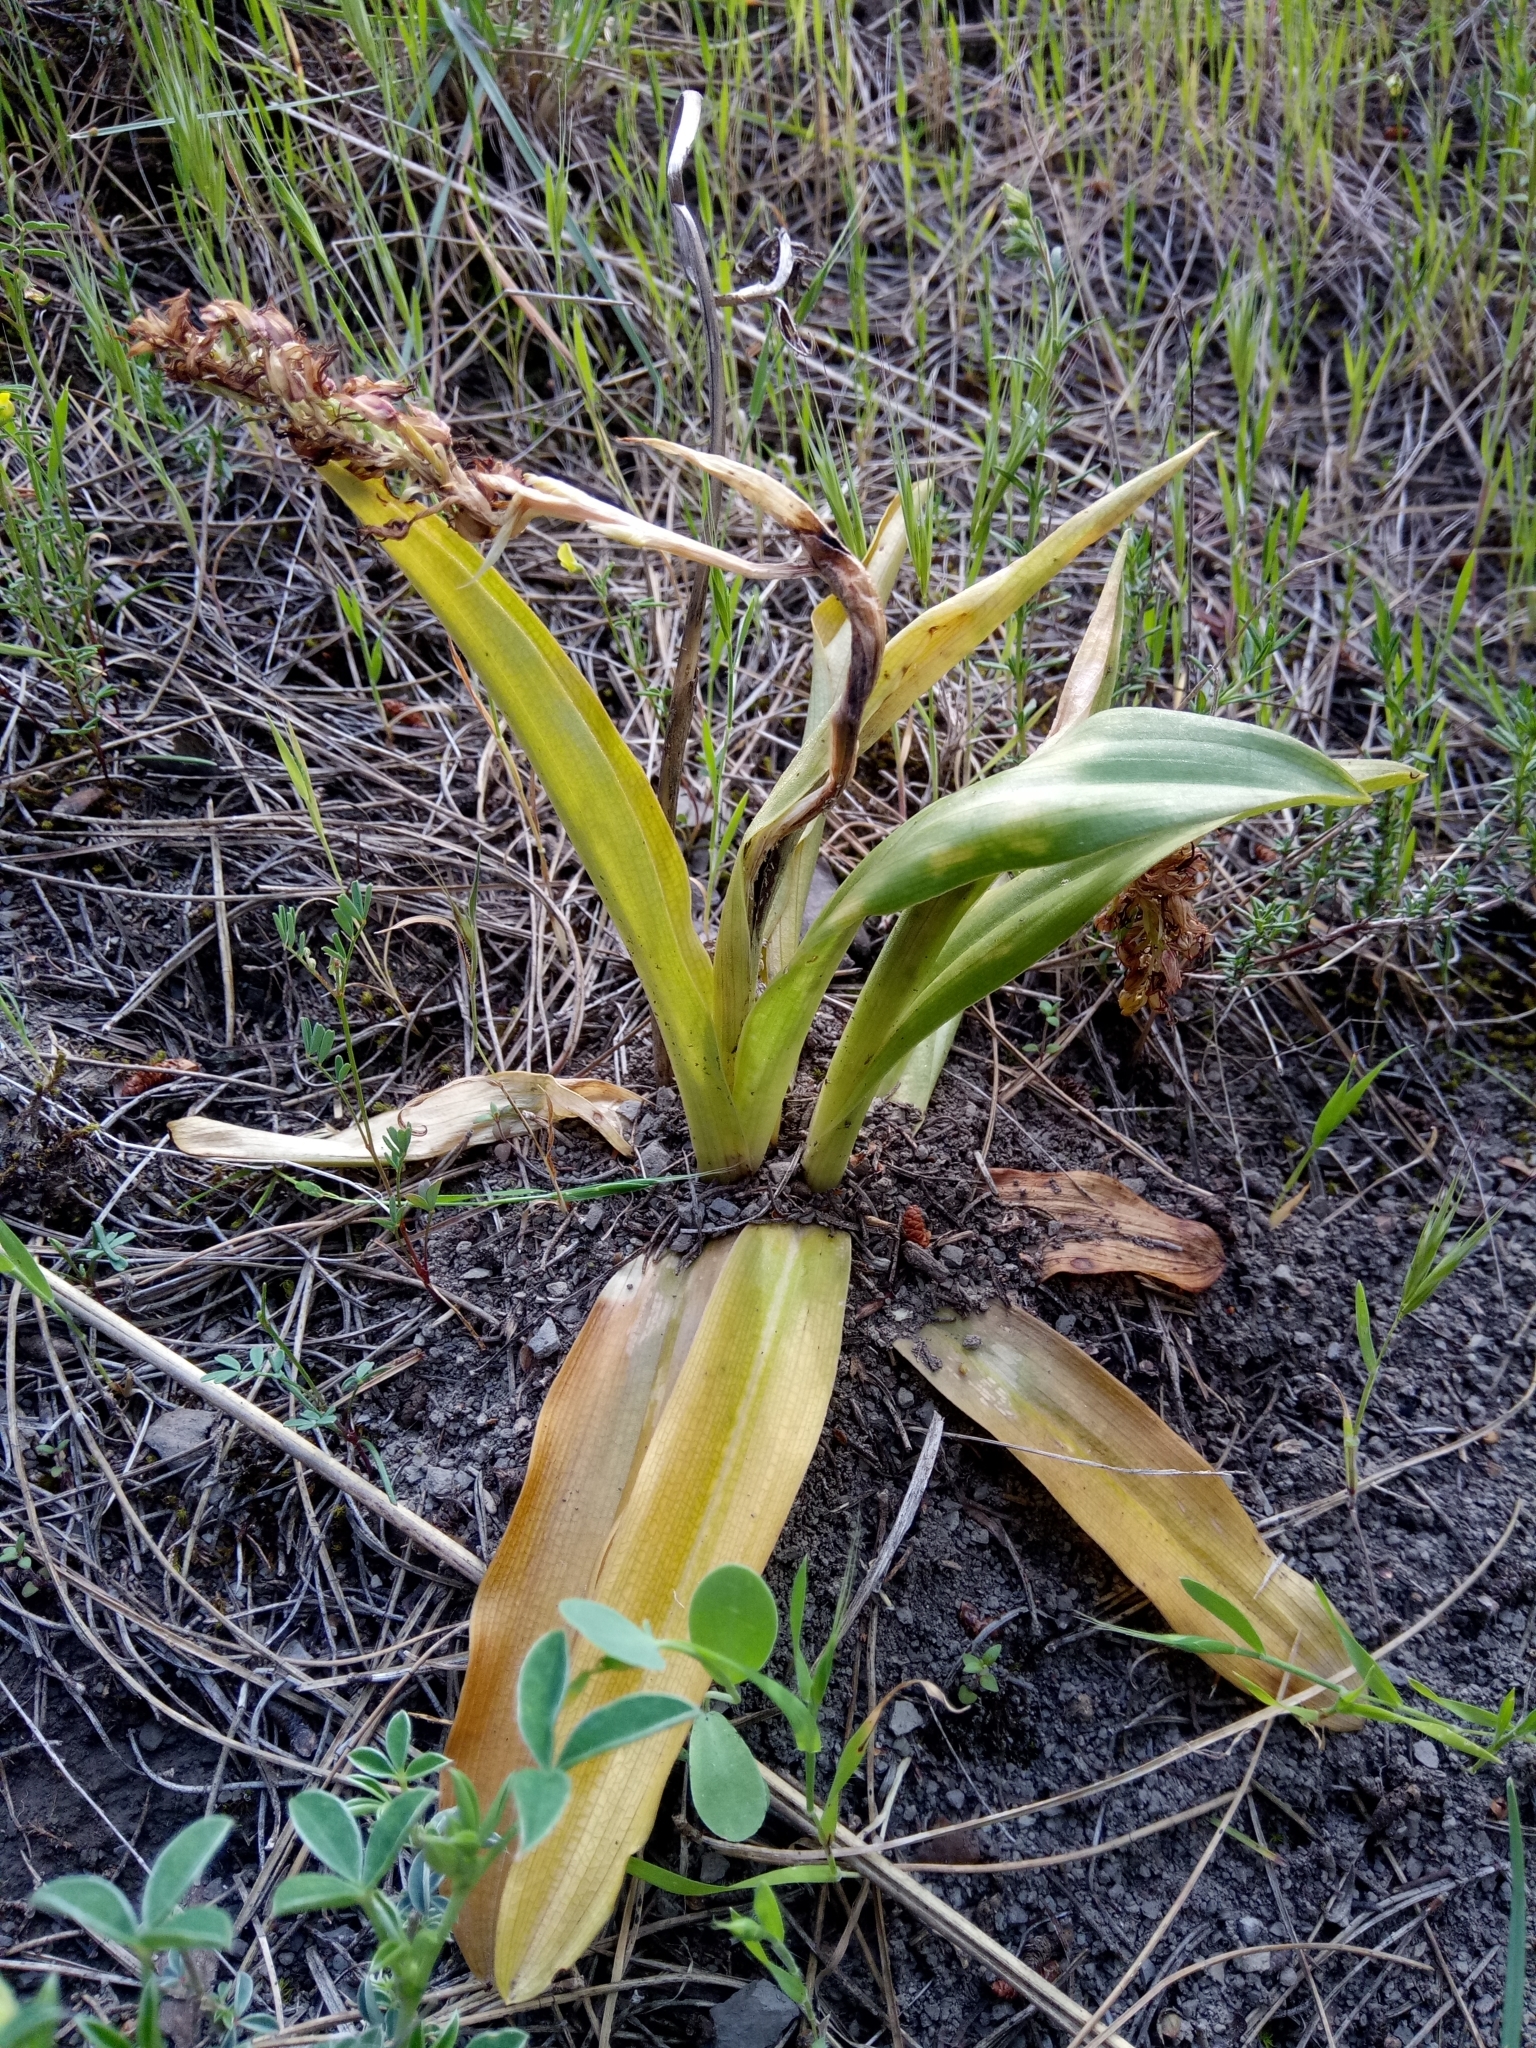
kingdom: Plantae
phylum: Tracheophyta
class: Liliopsida
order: Asparagales
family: Orchidaceae
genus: Orchis
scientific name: Orchis simia
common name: Monkey orchid
